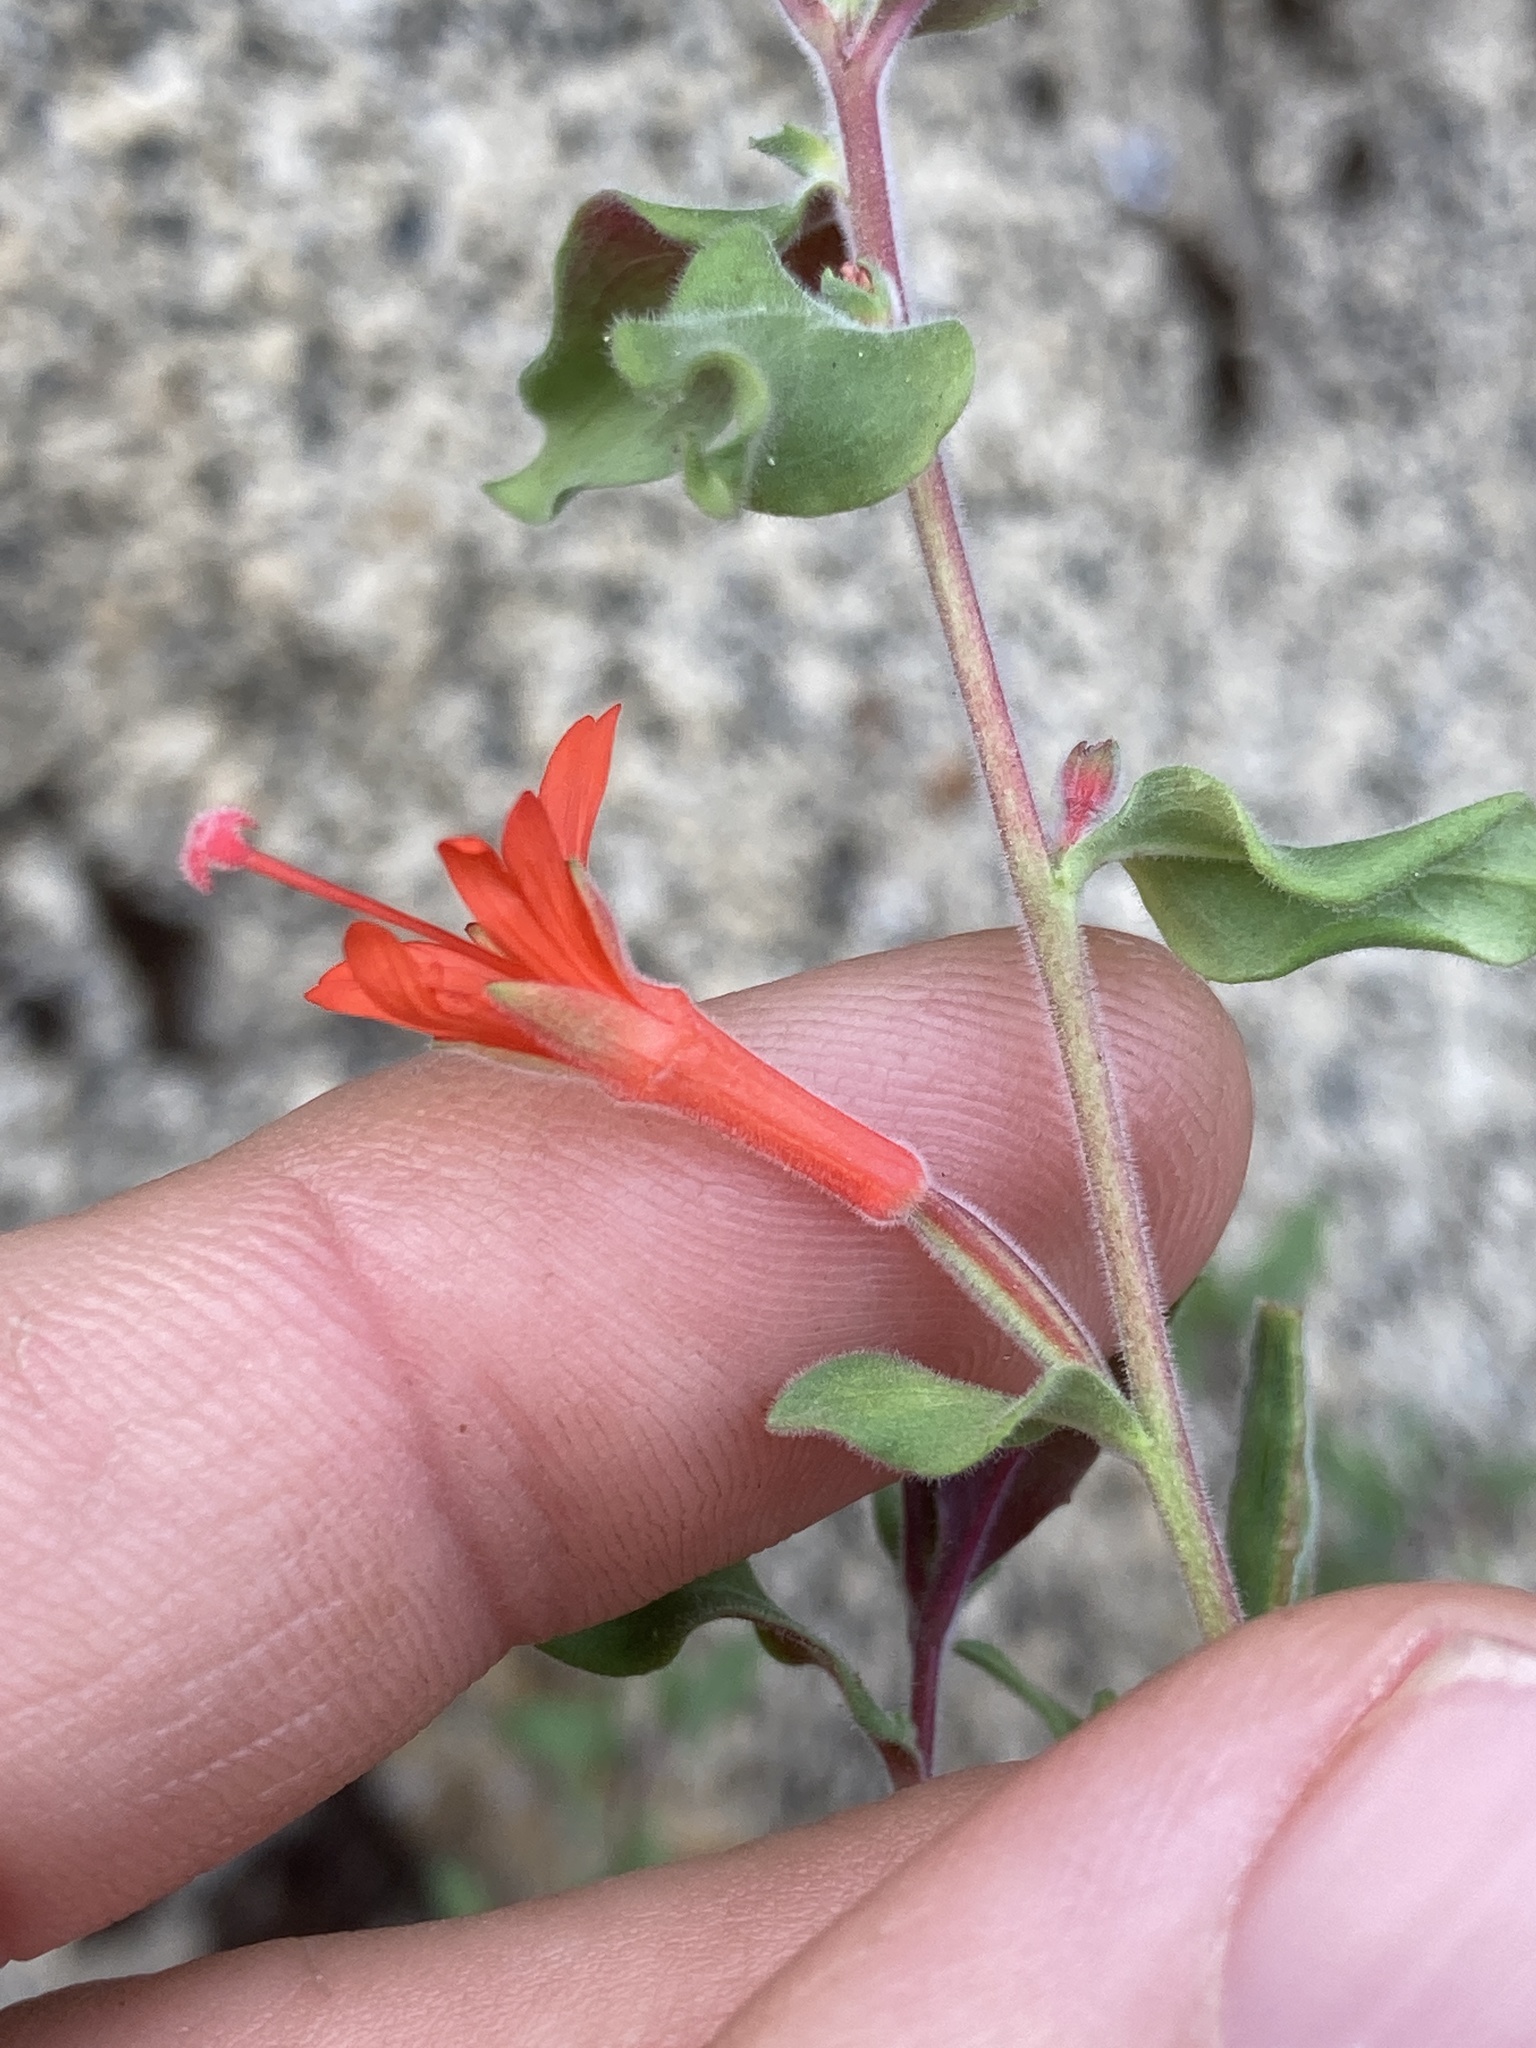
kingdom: Plantae
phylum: Tracheophyta
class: Magnoliopsida
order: Myrtales
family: Onagraceae
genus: Epilobium
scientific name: Epilobium canum
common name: California-fuchsia
